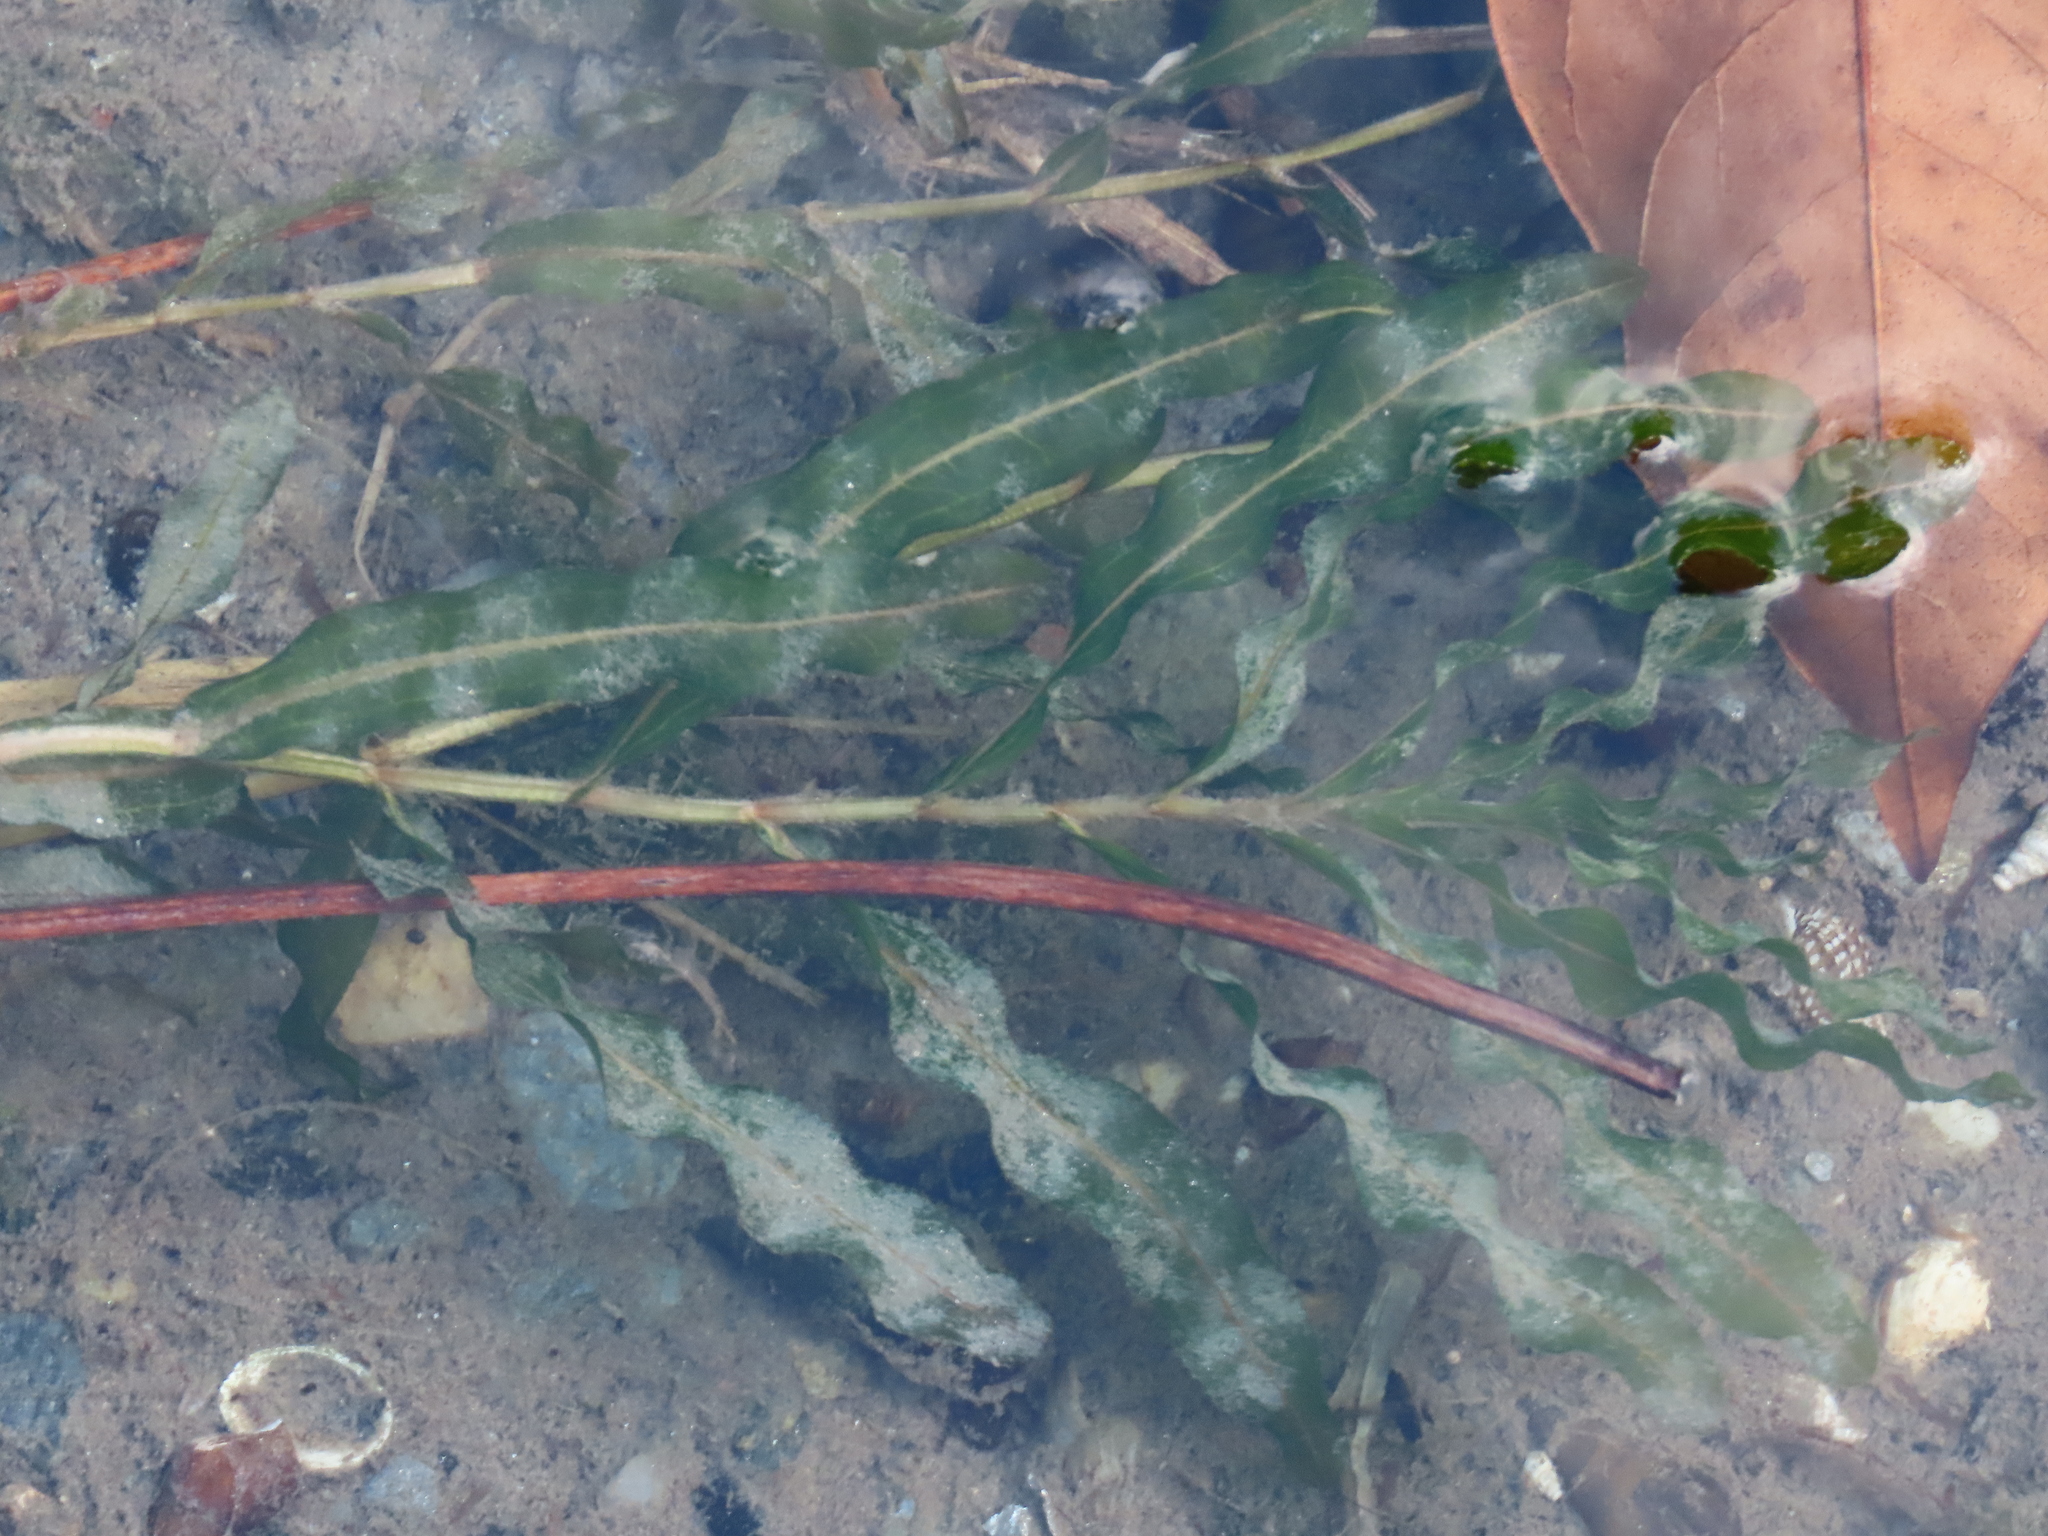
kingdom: Plantae
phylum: Tracheophyta
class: Liliopsida
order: Alismatales
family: Potamogetonaceae
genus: Potamogeton
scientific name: Potamogeton crispus
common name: Curled pondweed
